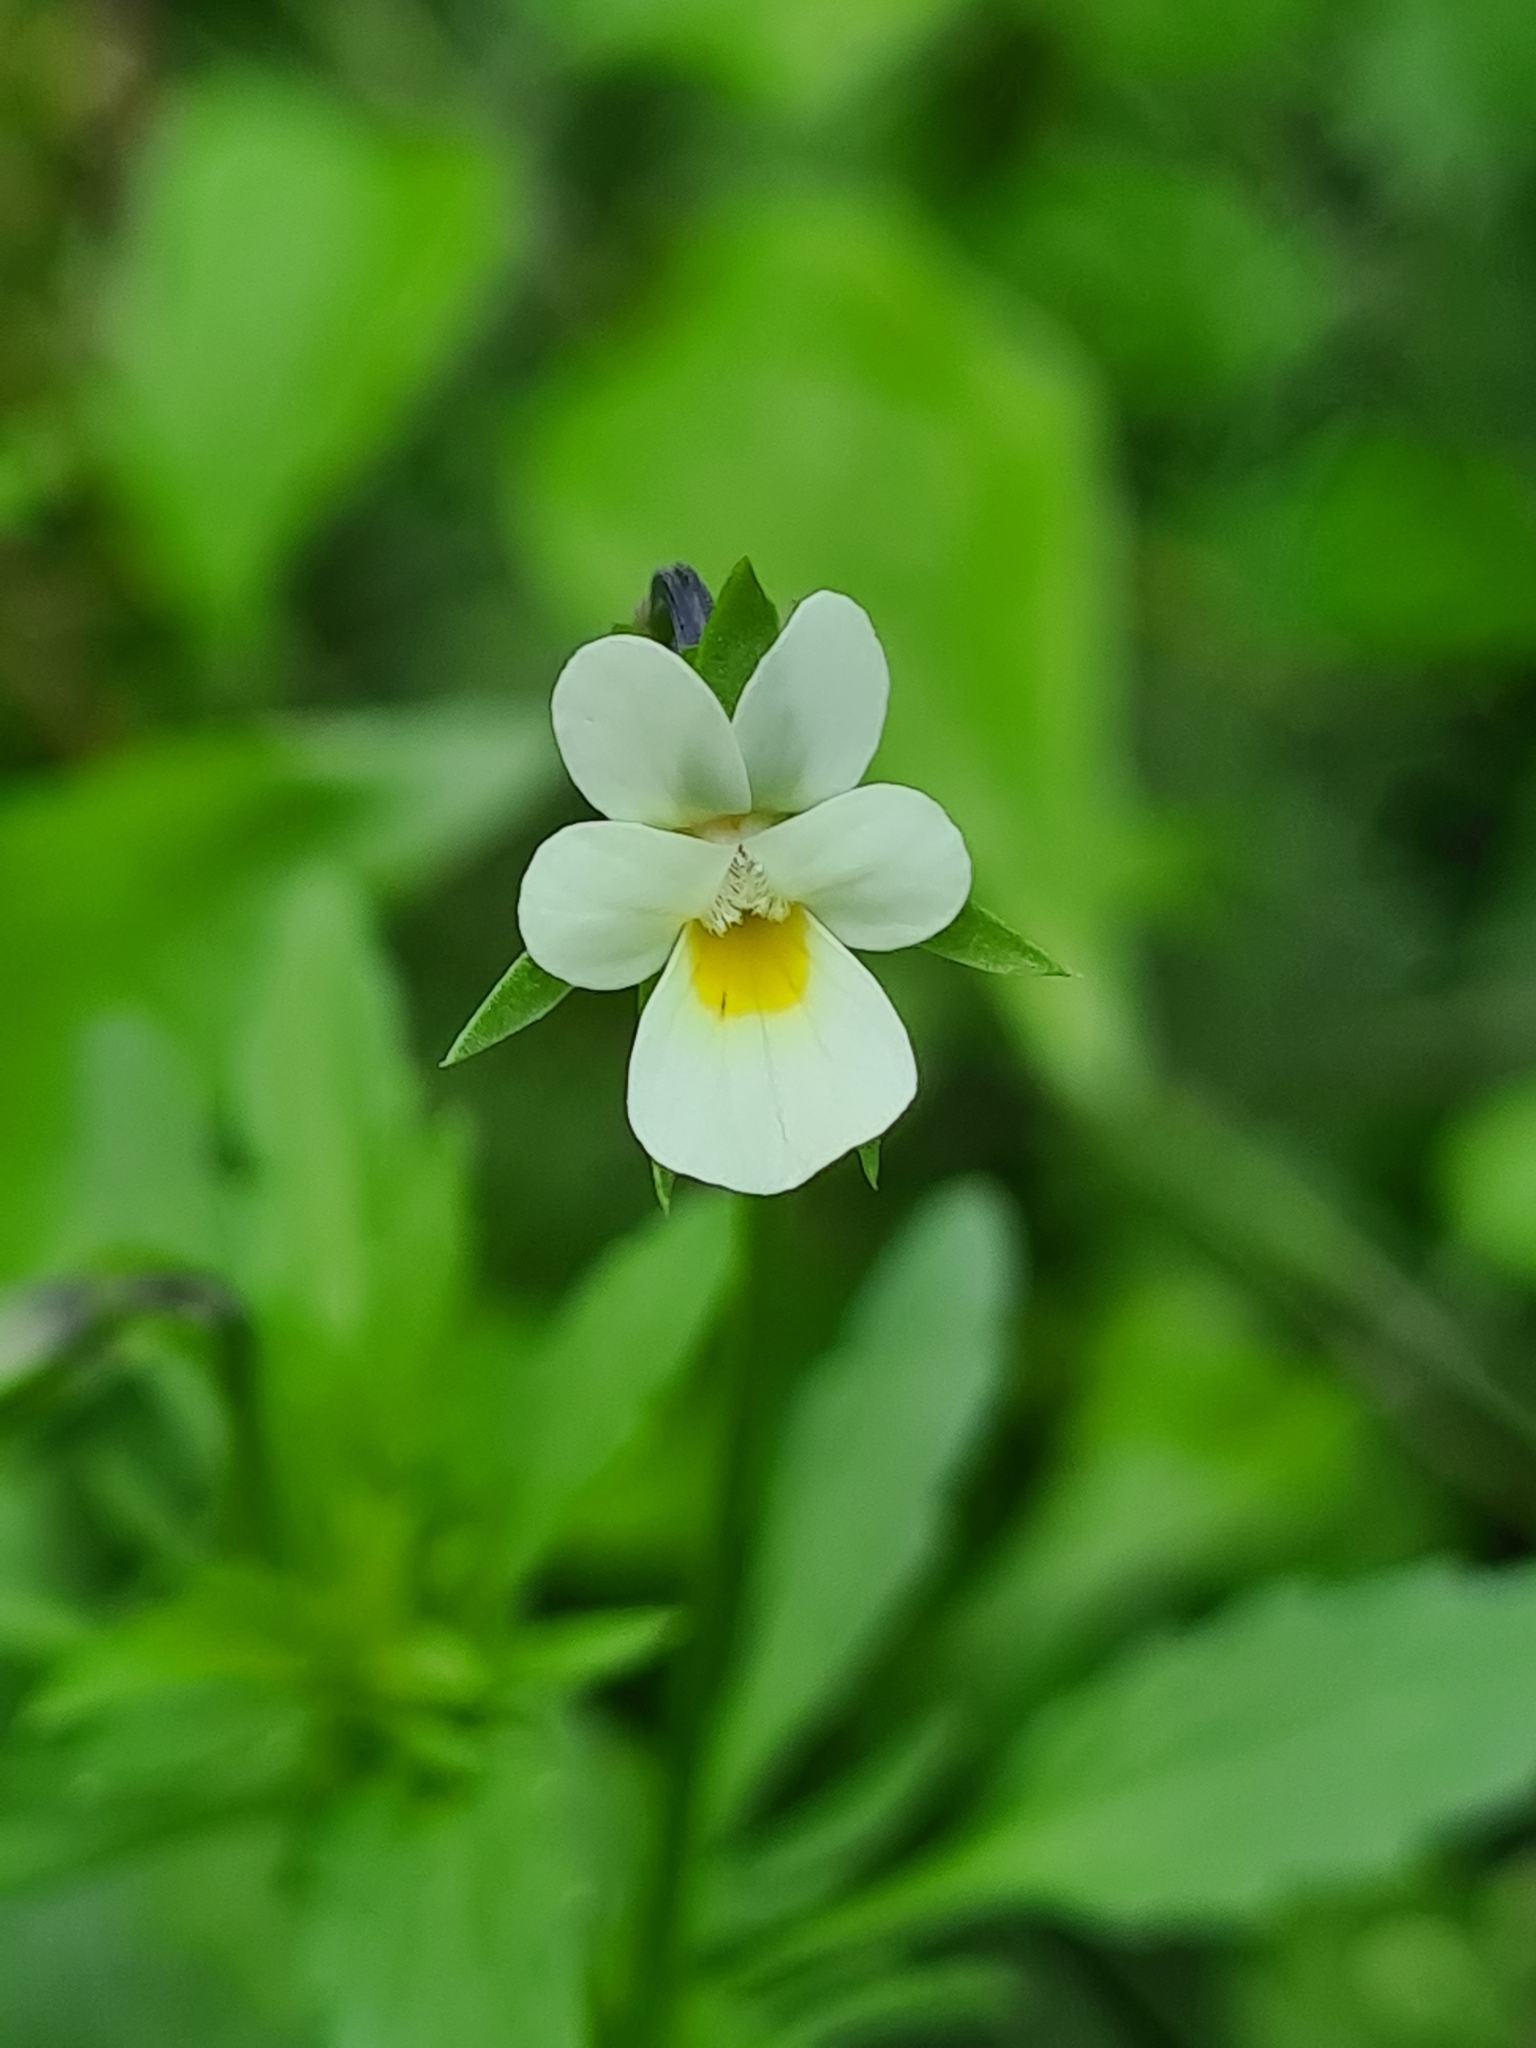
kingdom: Plantae
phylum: Tracheophyta
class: Magnoliopsida
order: Malpighiales
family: Violaceae
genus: Viola
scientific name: Viola arvensis
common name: Field pansy
